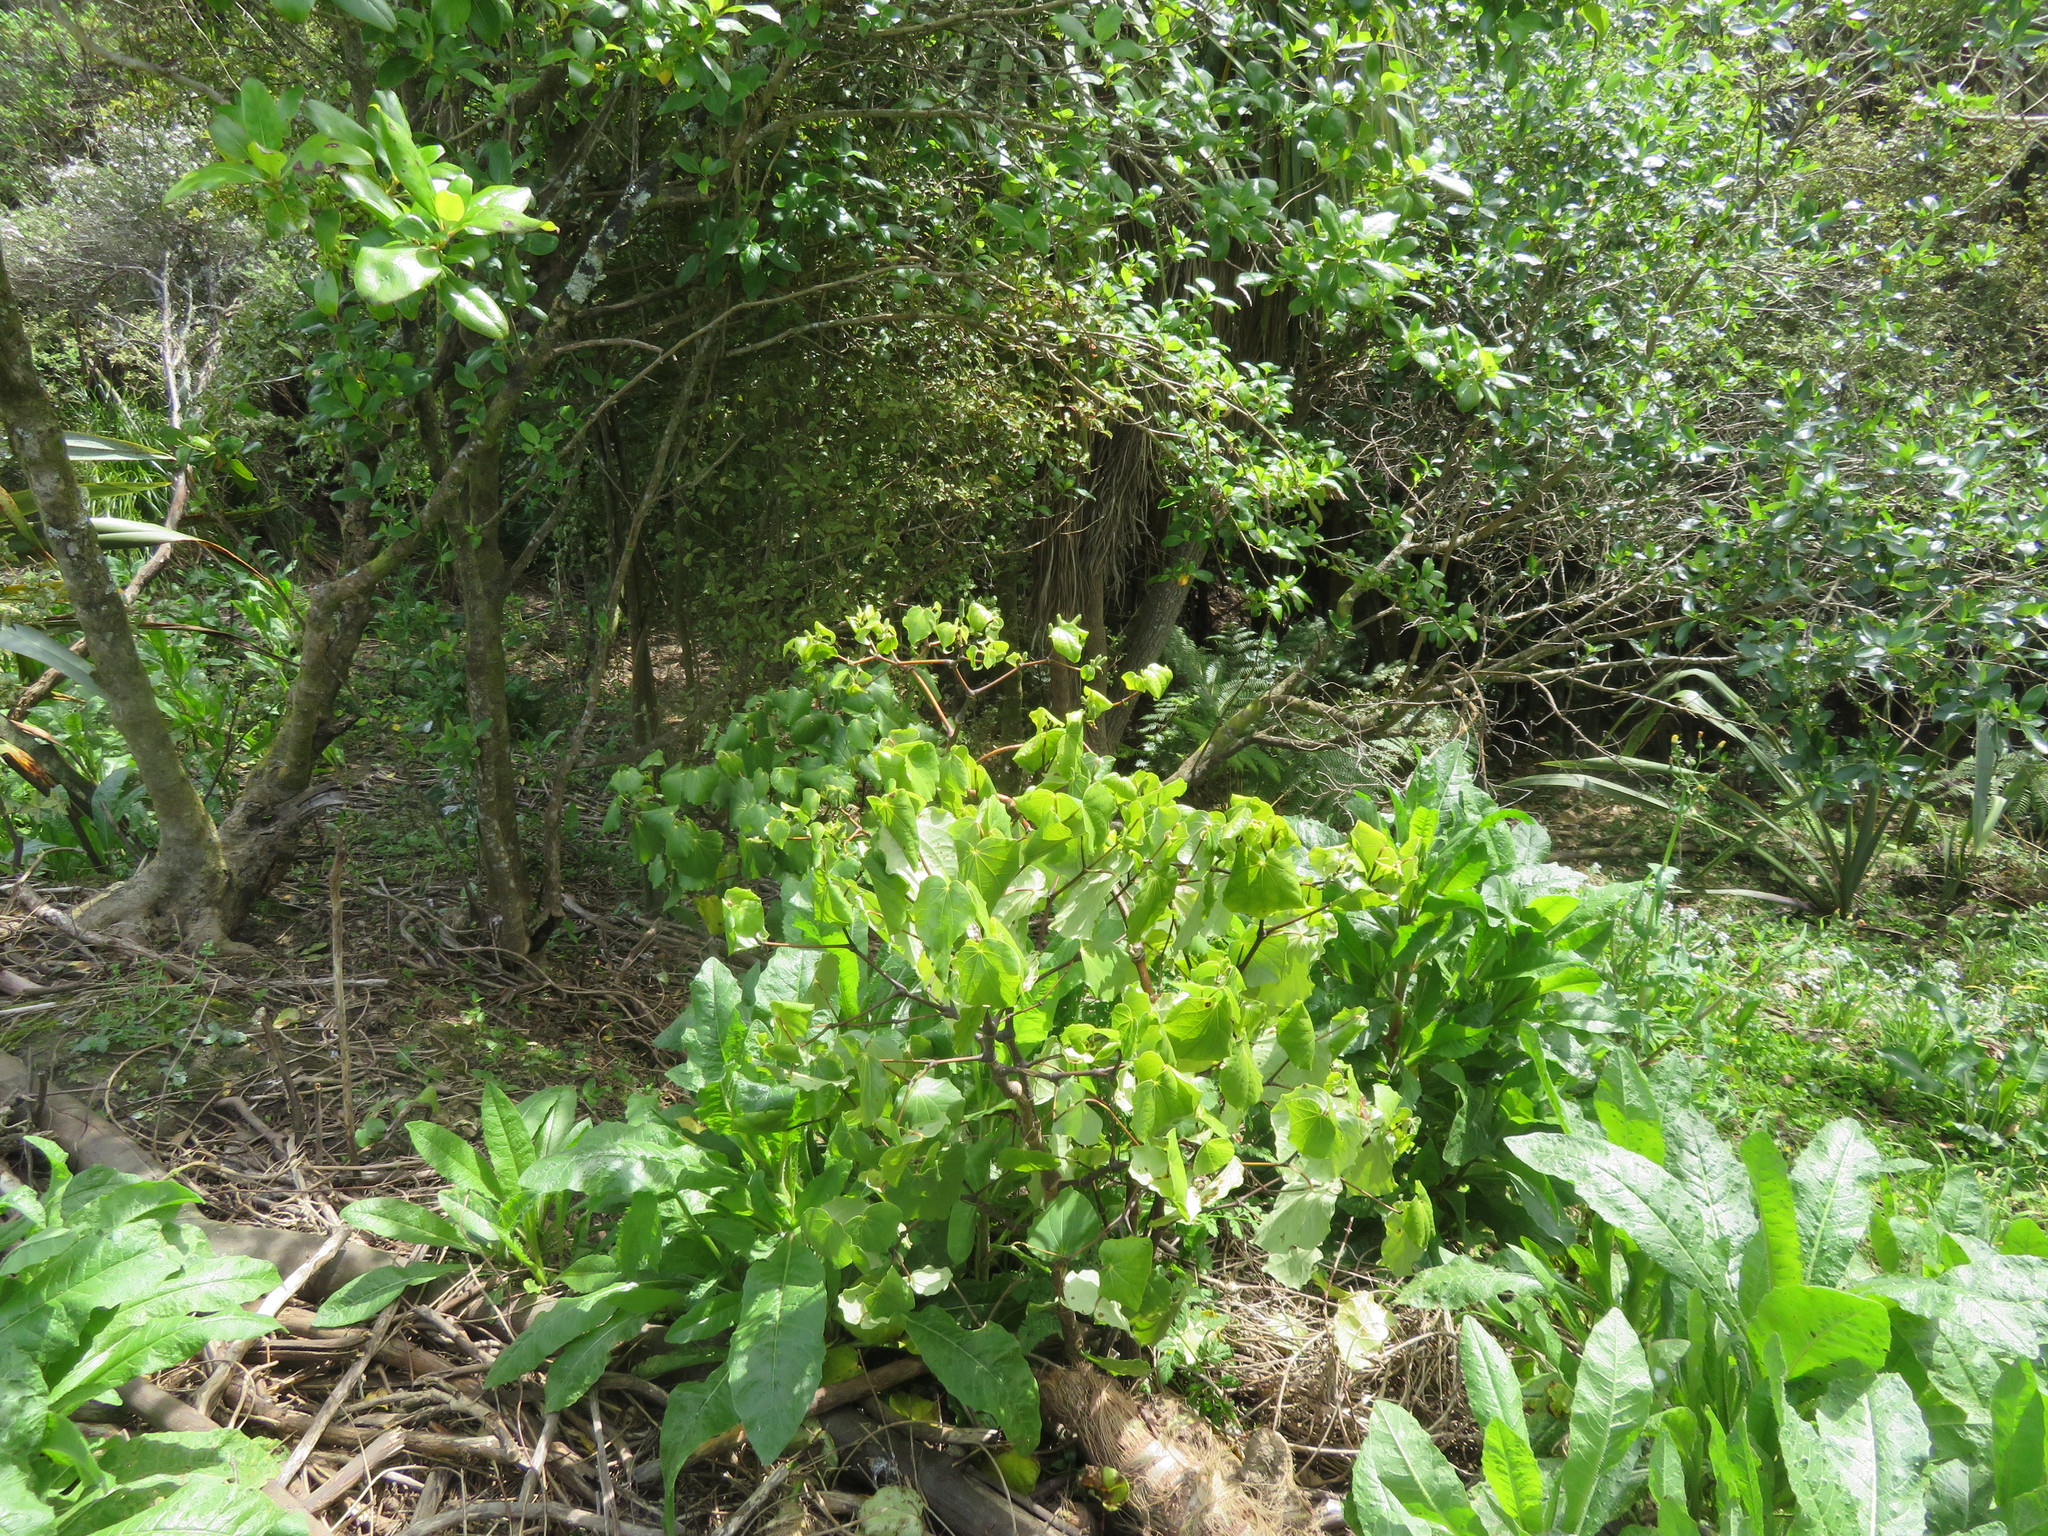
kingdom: Plantae
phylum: Tracheophyta
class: Magnoliopsida
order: Piperales
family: Piperaceae
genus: Macropiper
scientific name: Macropiper excelsum
